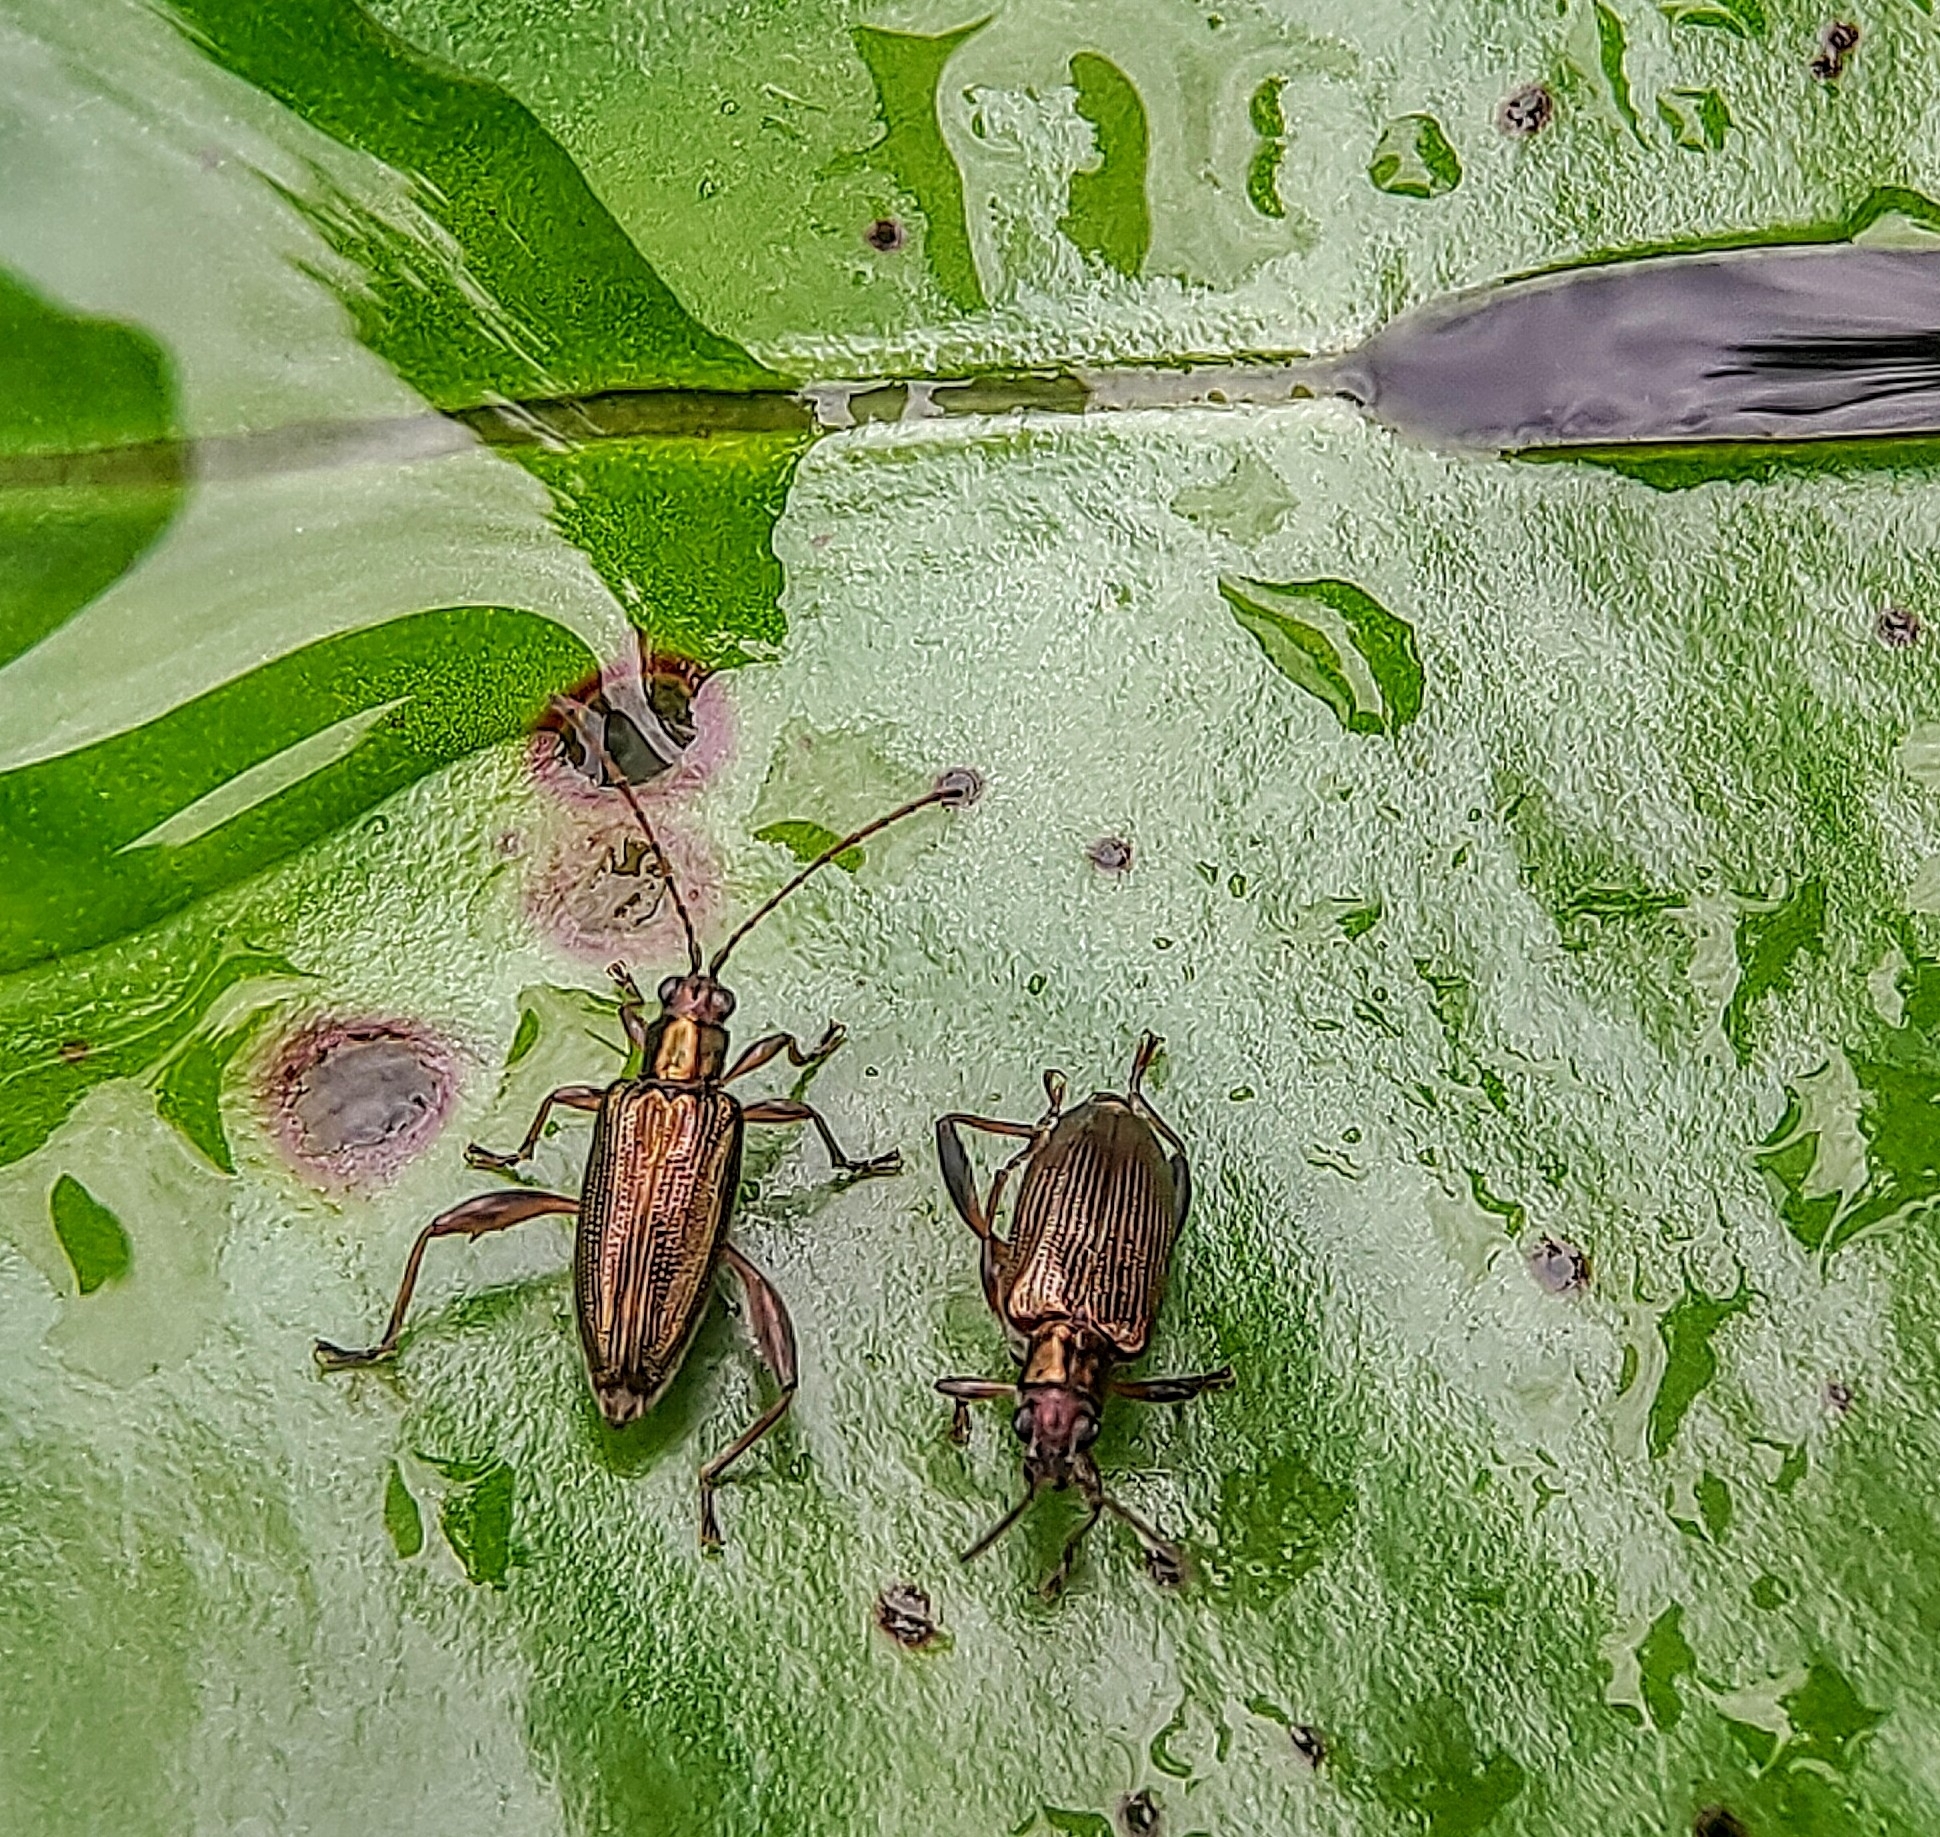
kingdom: Animalia
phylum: Arthropoda
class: Insecta
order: Coleoptera
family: Chrysomelidae
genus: Donacia
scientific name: Donacia japana
